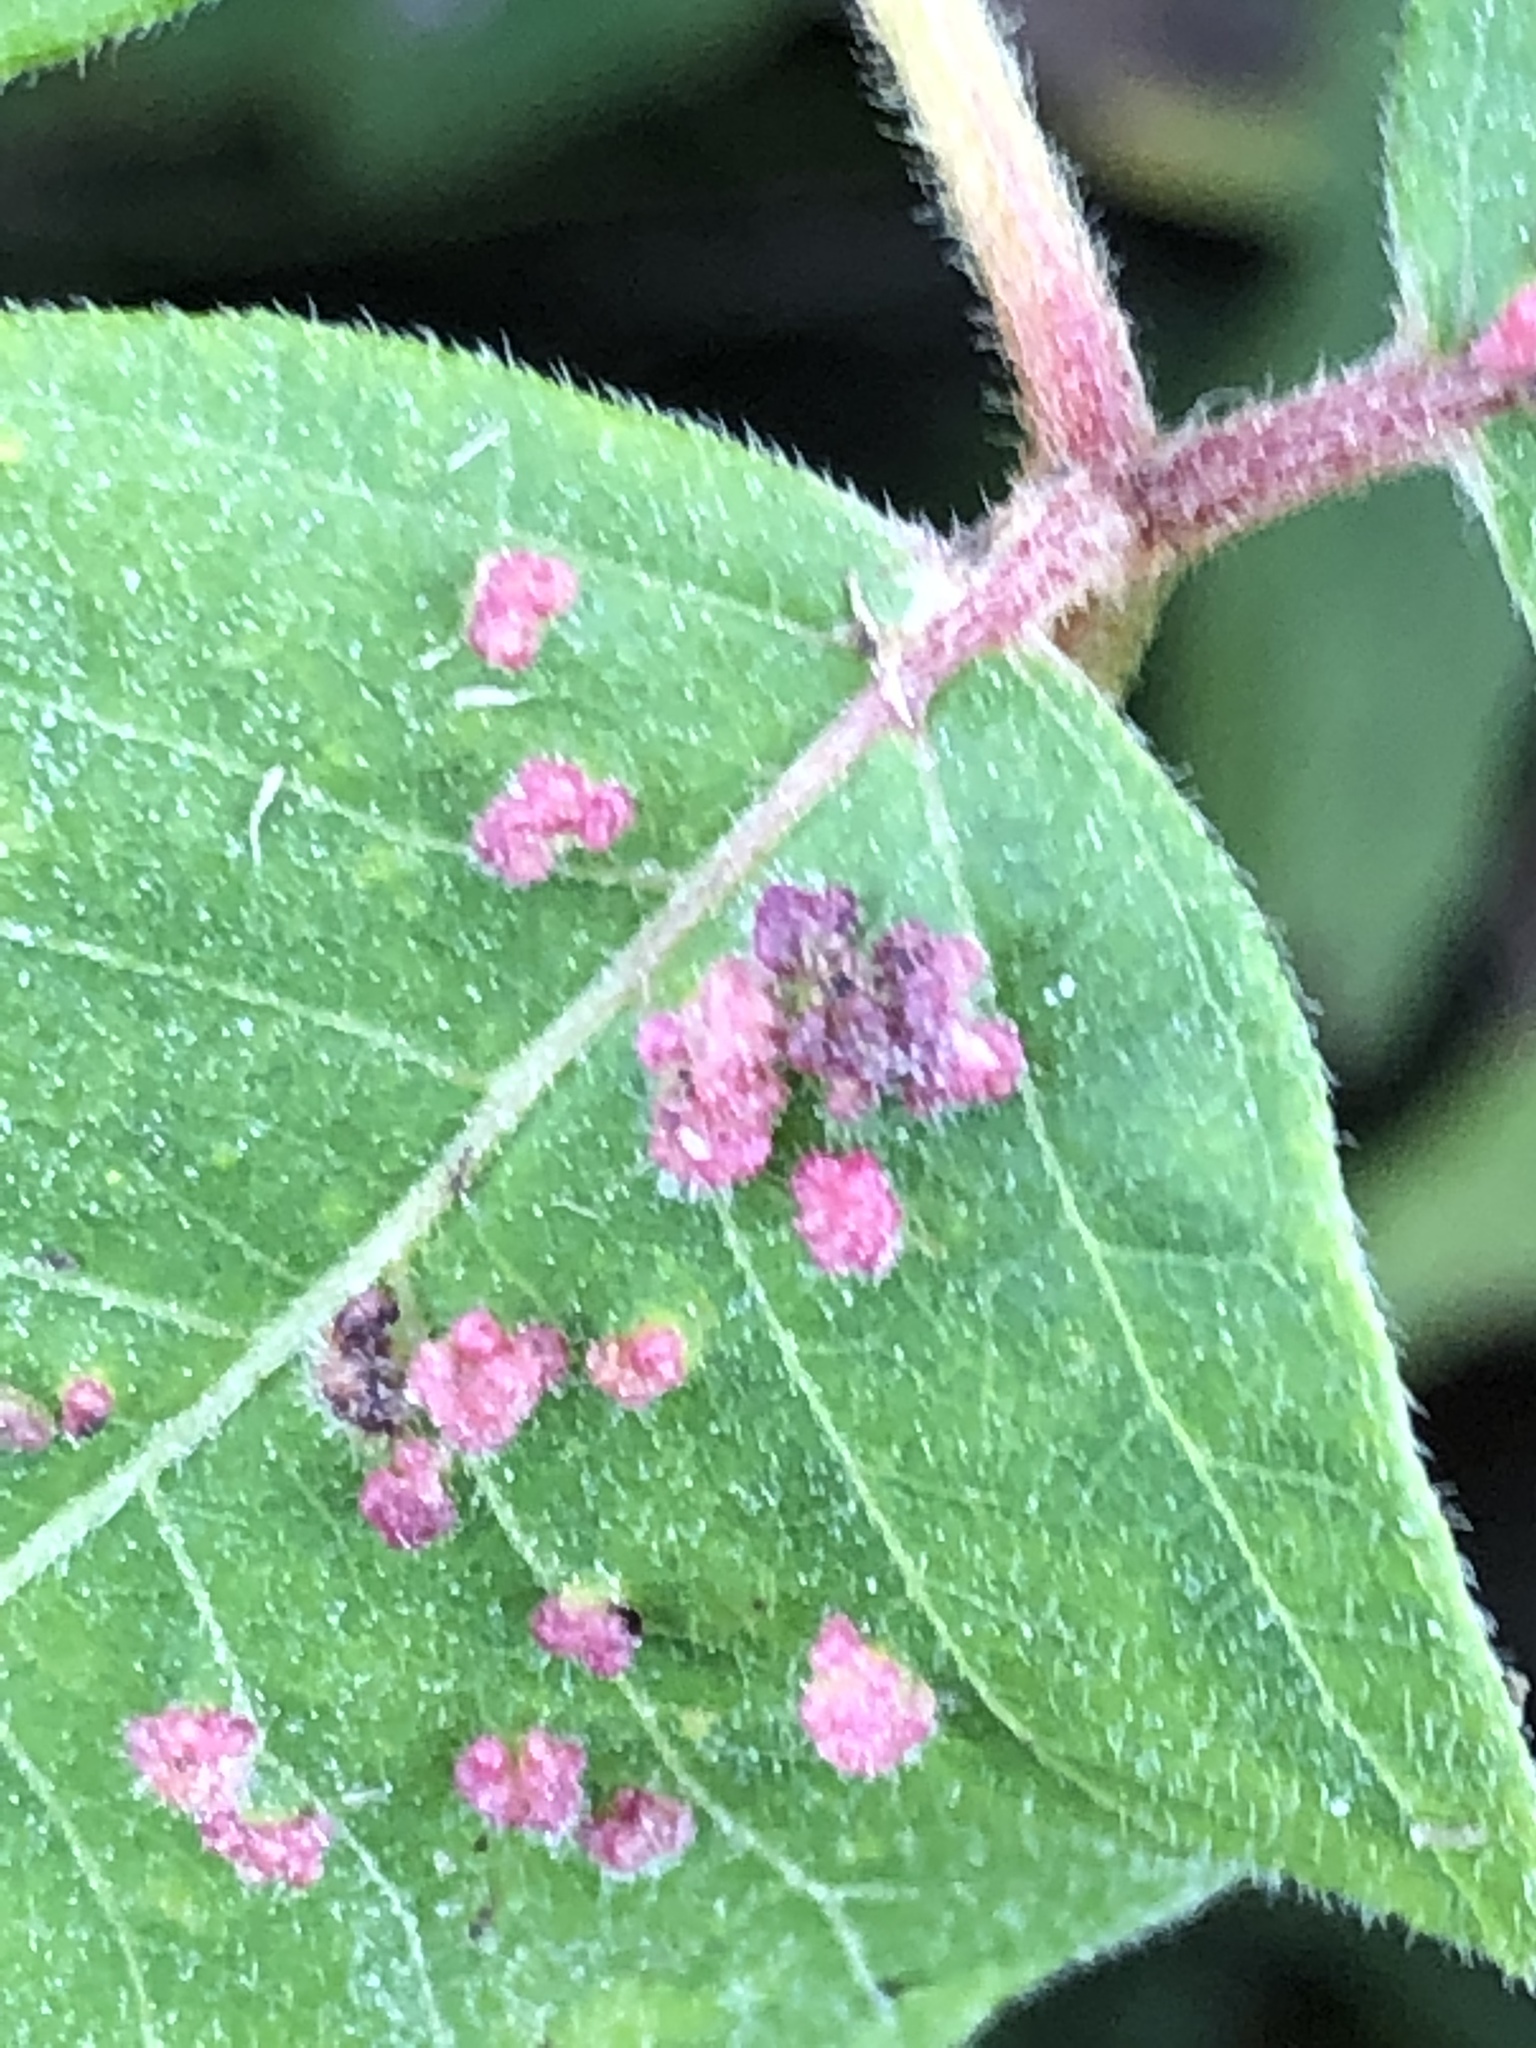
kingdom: Animalia
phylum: Arthropoda
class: Arachnida
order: Trombidiformes
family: Eriophyidae
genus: Aculops
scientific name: Aculops
